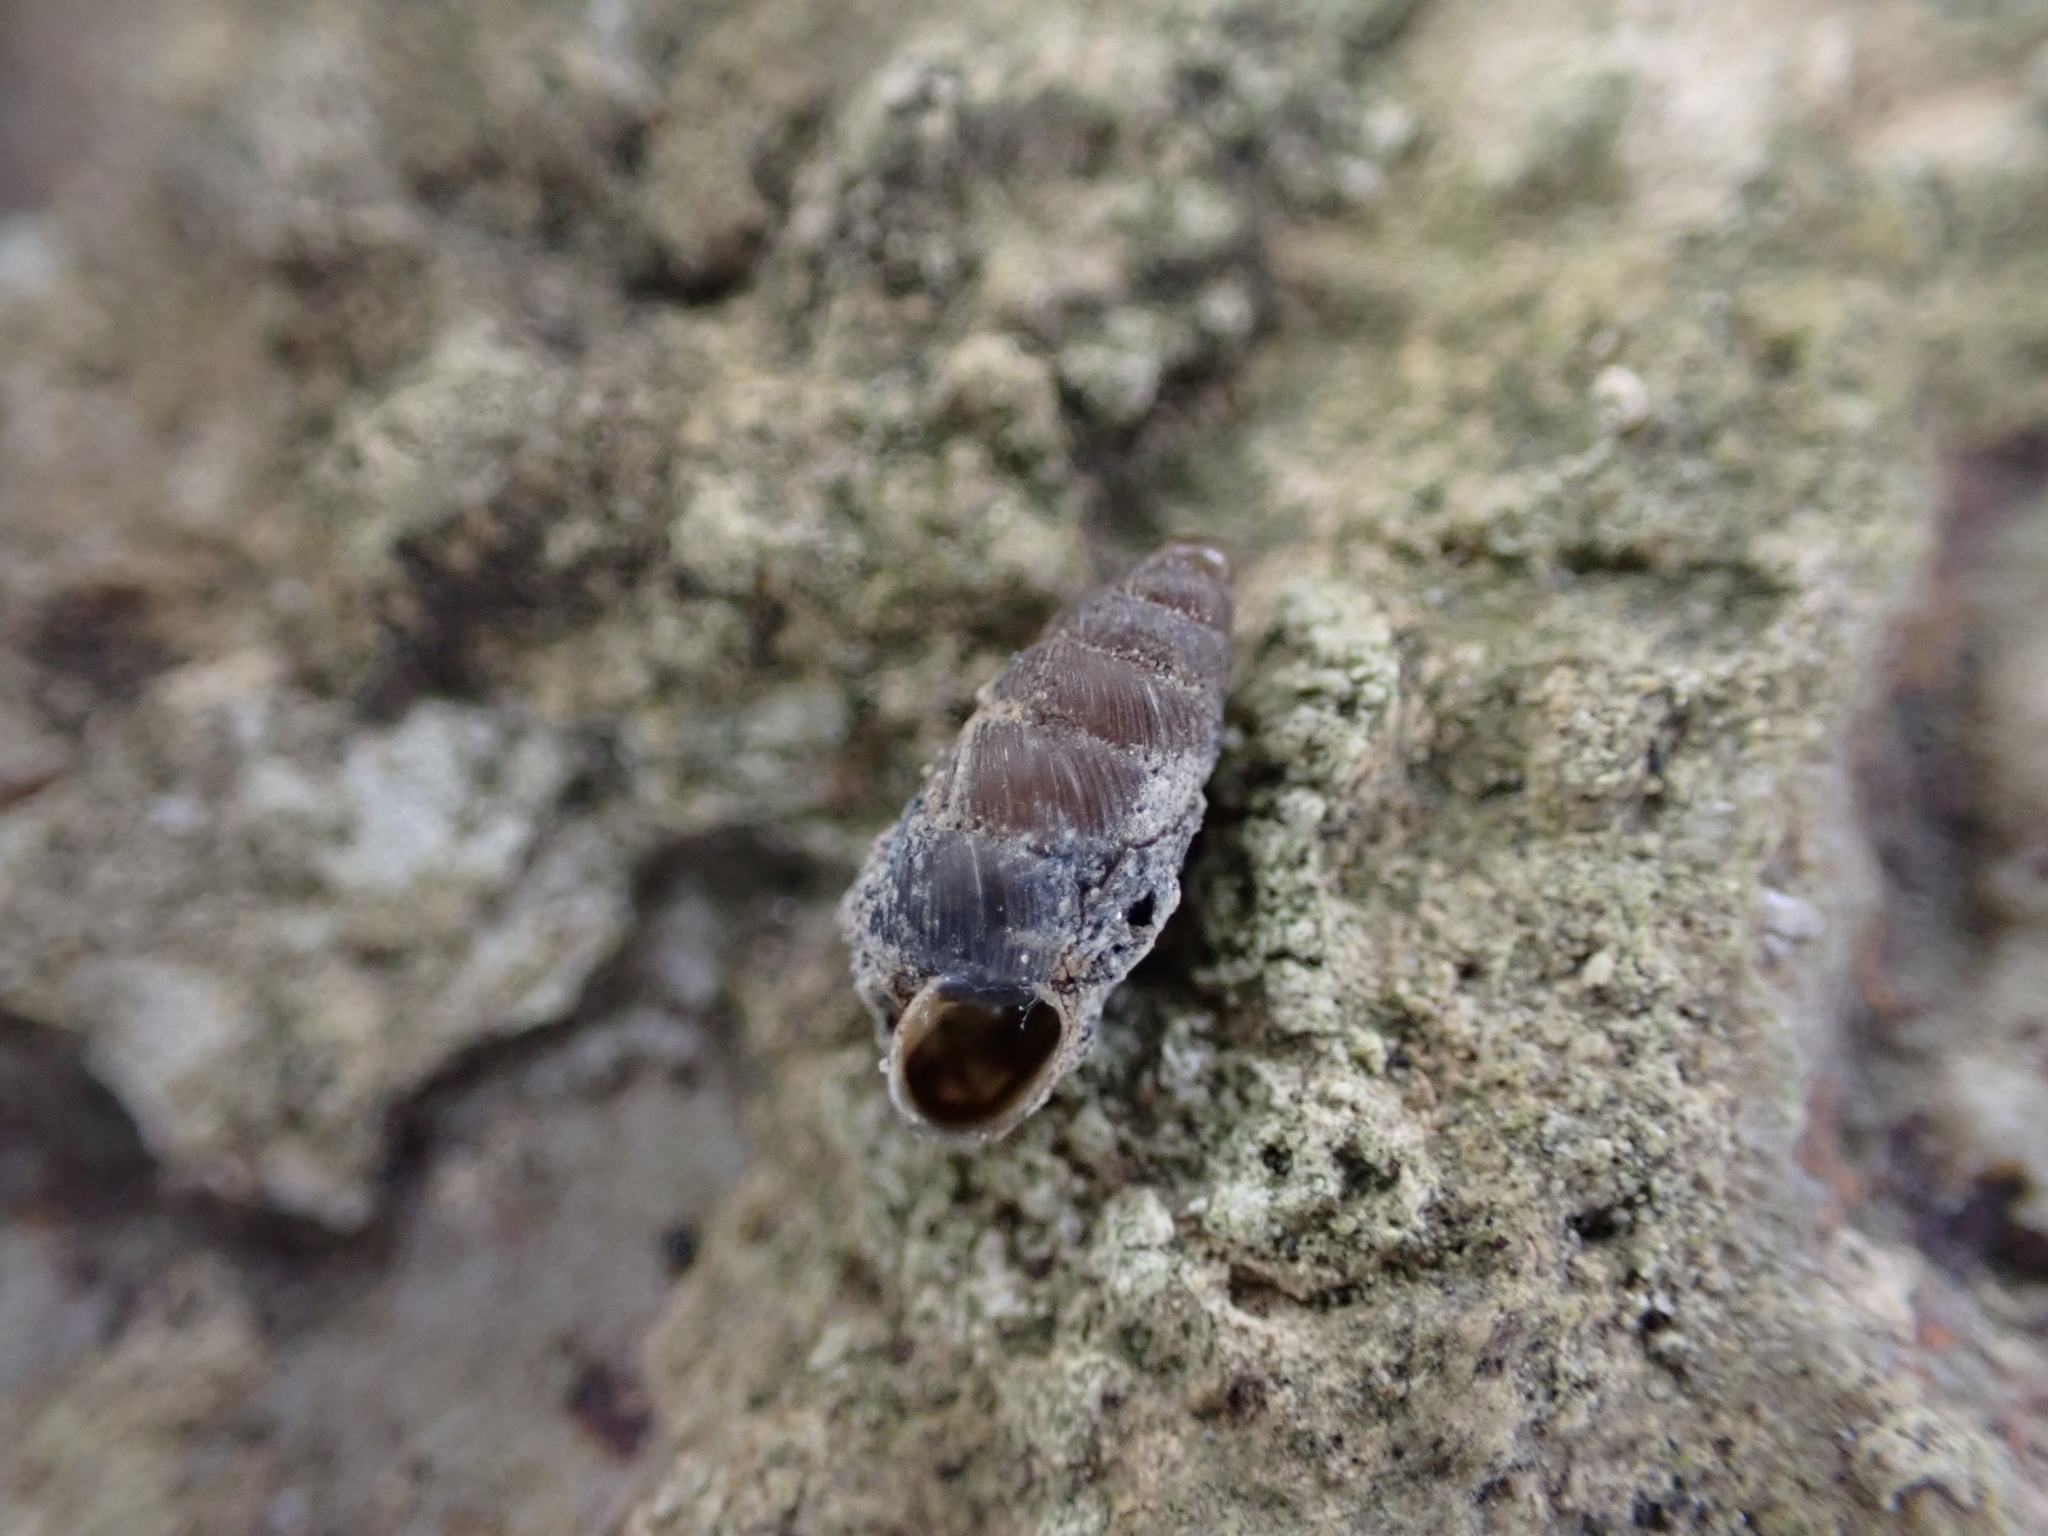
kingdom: Animalia
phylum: Mollusca
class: Gastropoda
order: Stylommatophora
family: Chondrinidae
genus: Granopupa
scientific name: Granopupa granum
